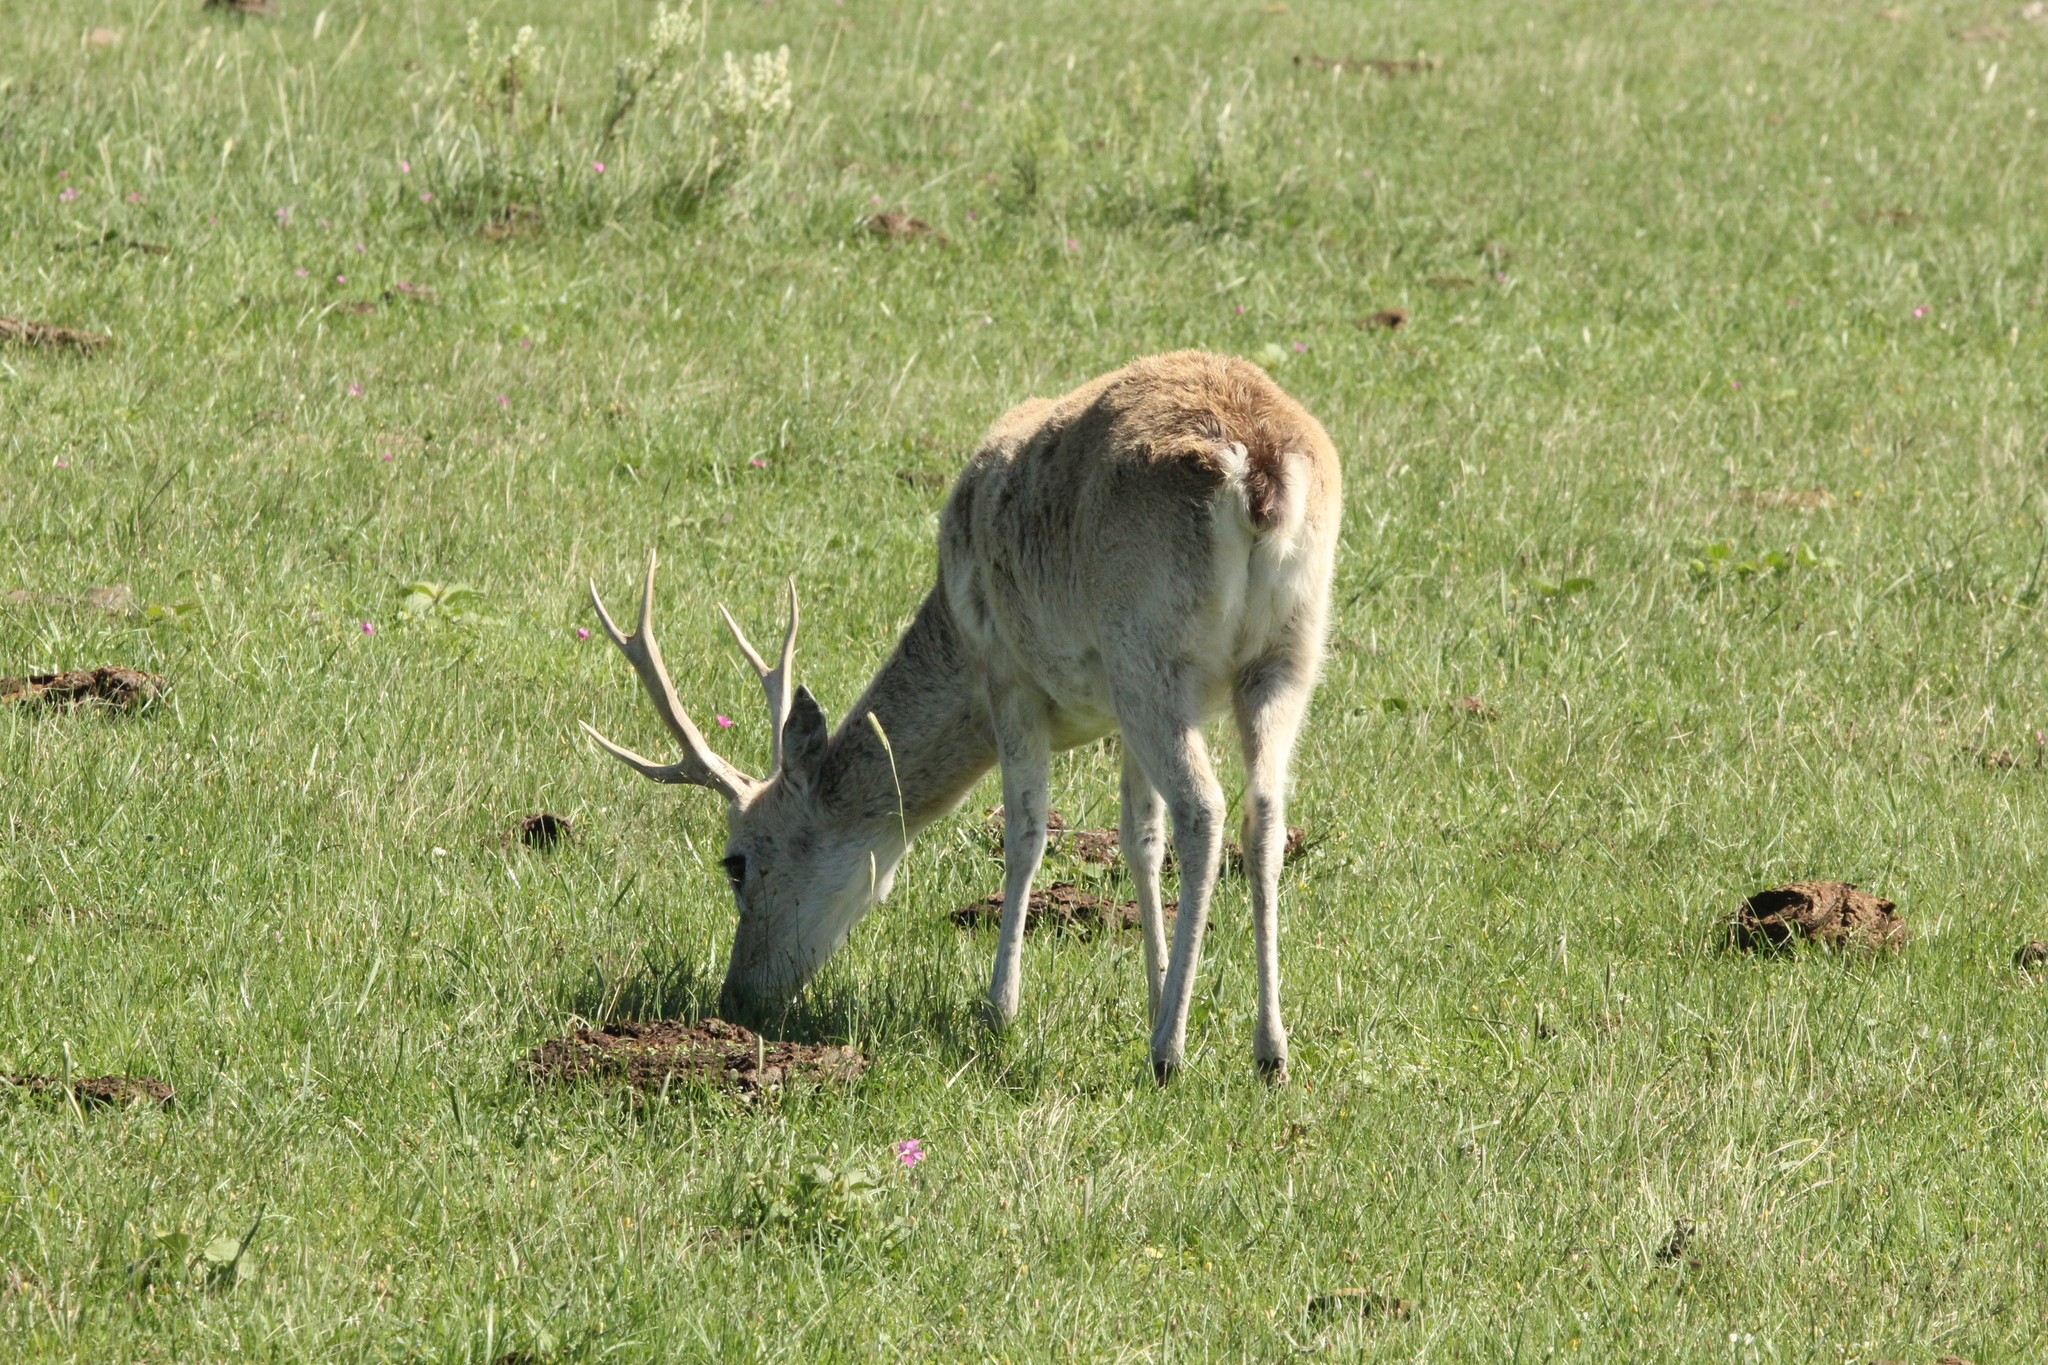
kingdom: Animalia
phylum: Chordata
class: Mammalia
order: Artiodactyla
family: Cervidae
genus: Ozotoceros
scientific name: Ozotoceros bezoarticus
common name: Pampas deer
